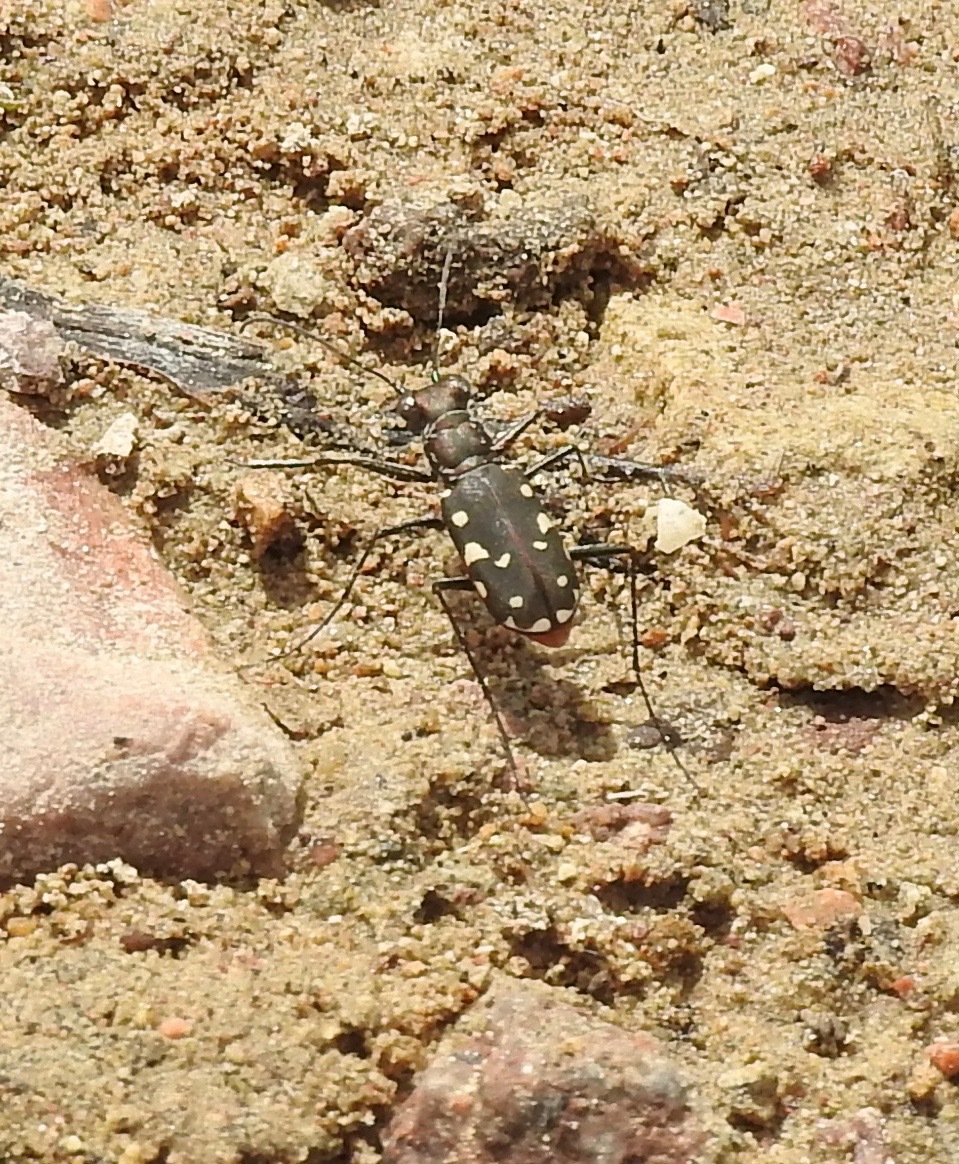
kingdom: Animalia
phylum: Arthropoda
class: Insecta
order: Coleoptera
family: Carabidae
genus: Cicindela
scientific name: Cicindela sedecimpunctata
